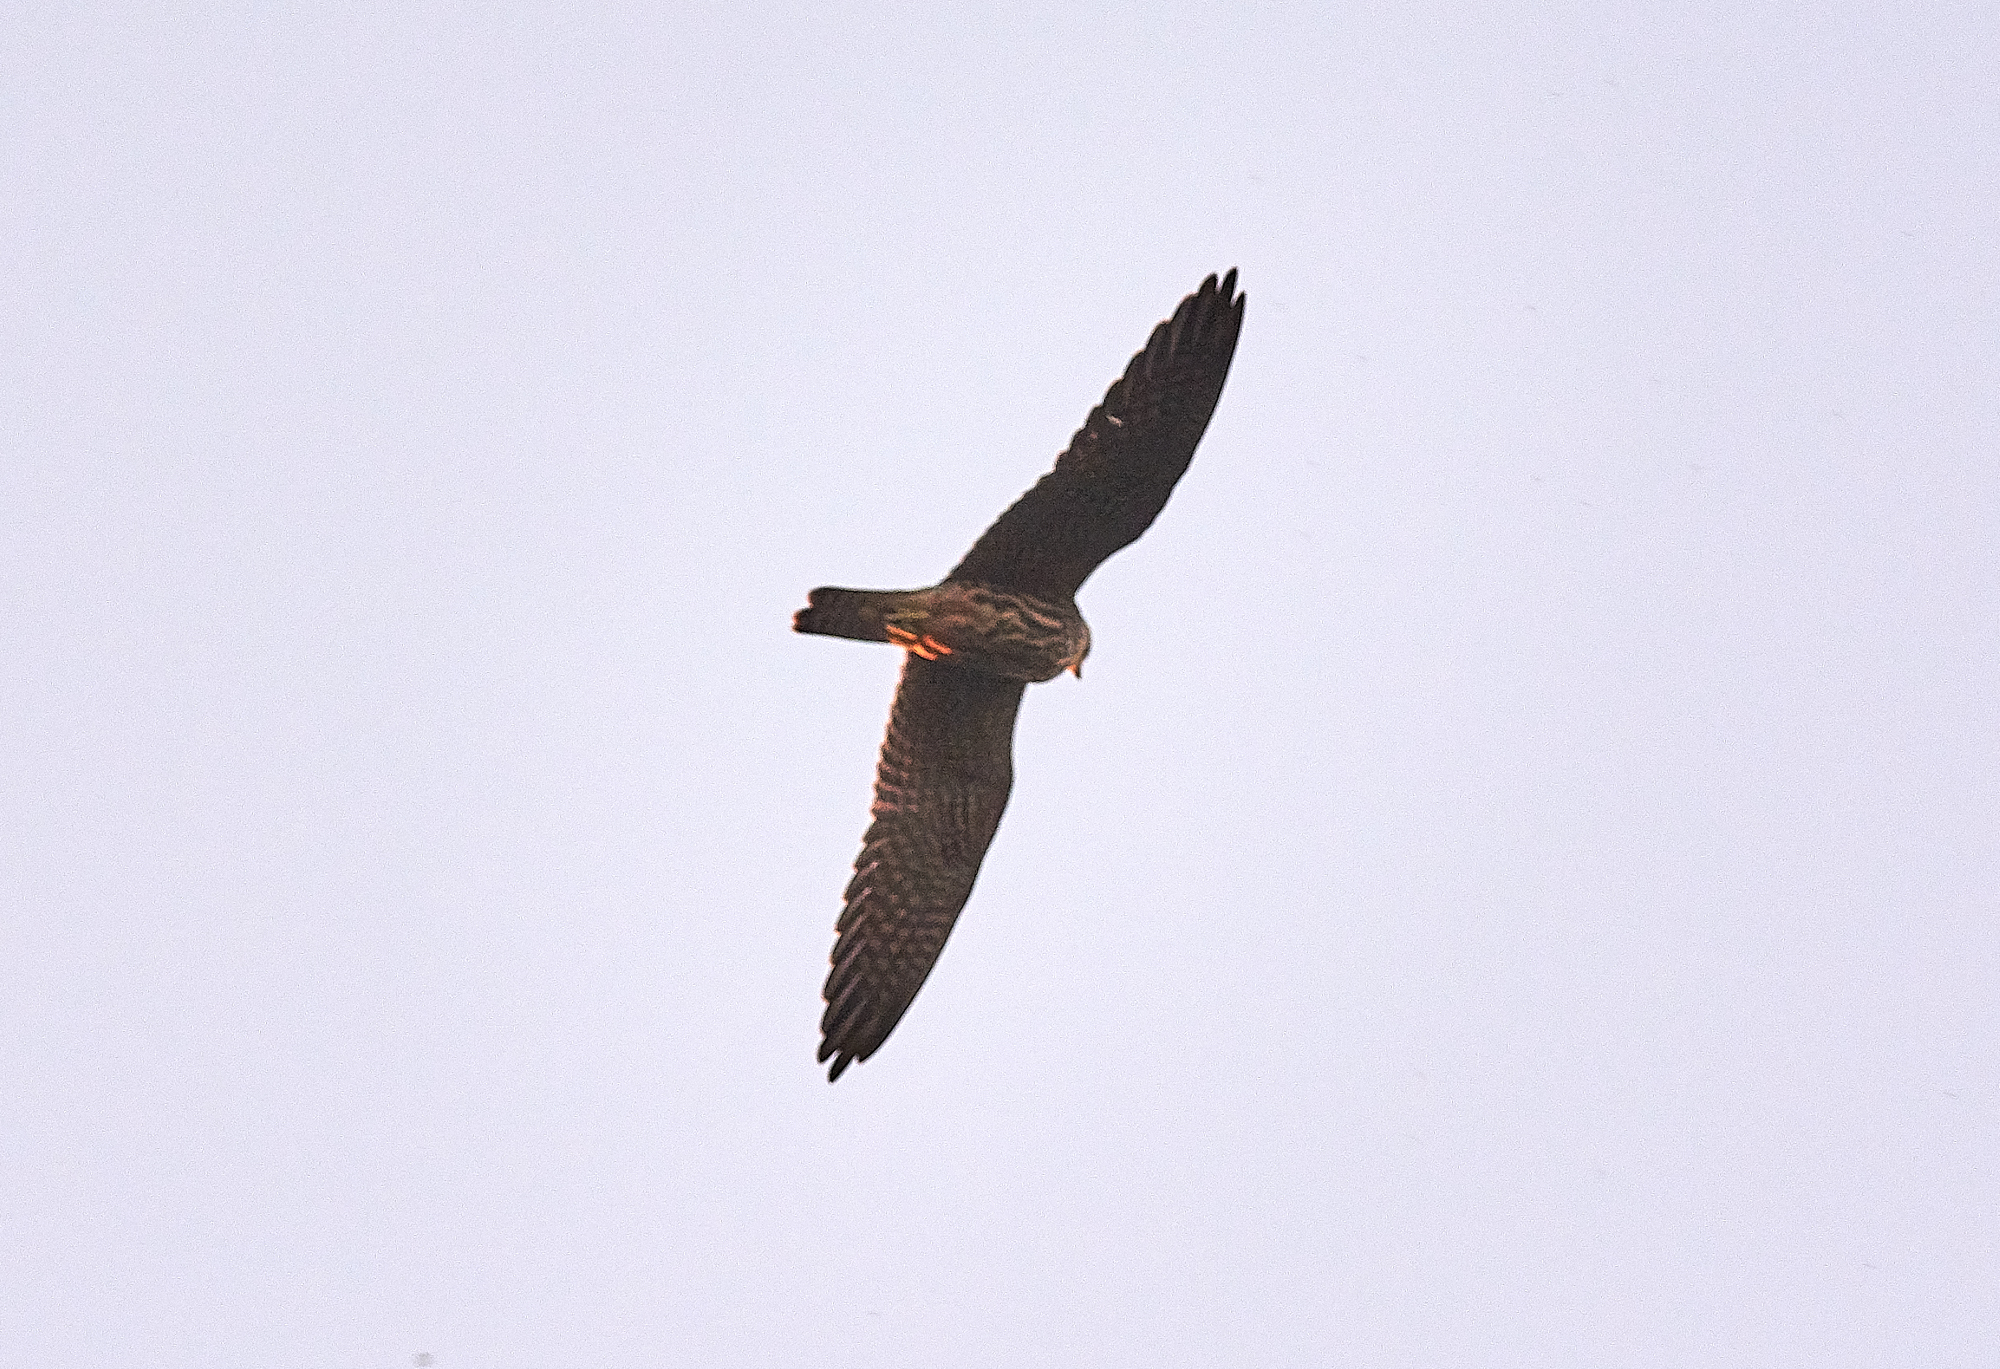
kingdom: Animalia
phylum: Chordata
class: Aves
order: Falconiformes
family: Falconidae
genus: Falco
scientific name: Falco subbuteo
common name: Eurasian hobby
